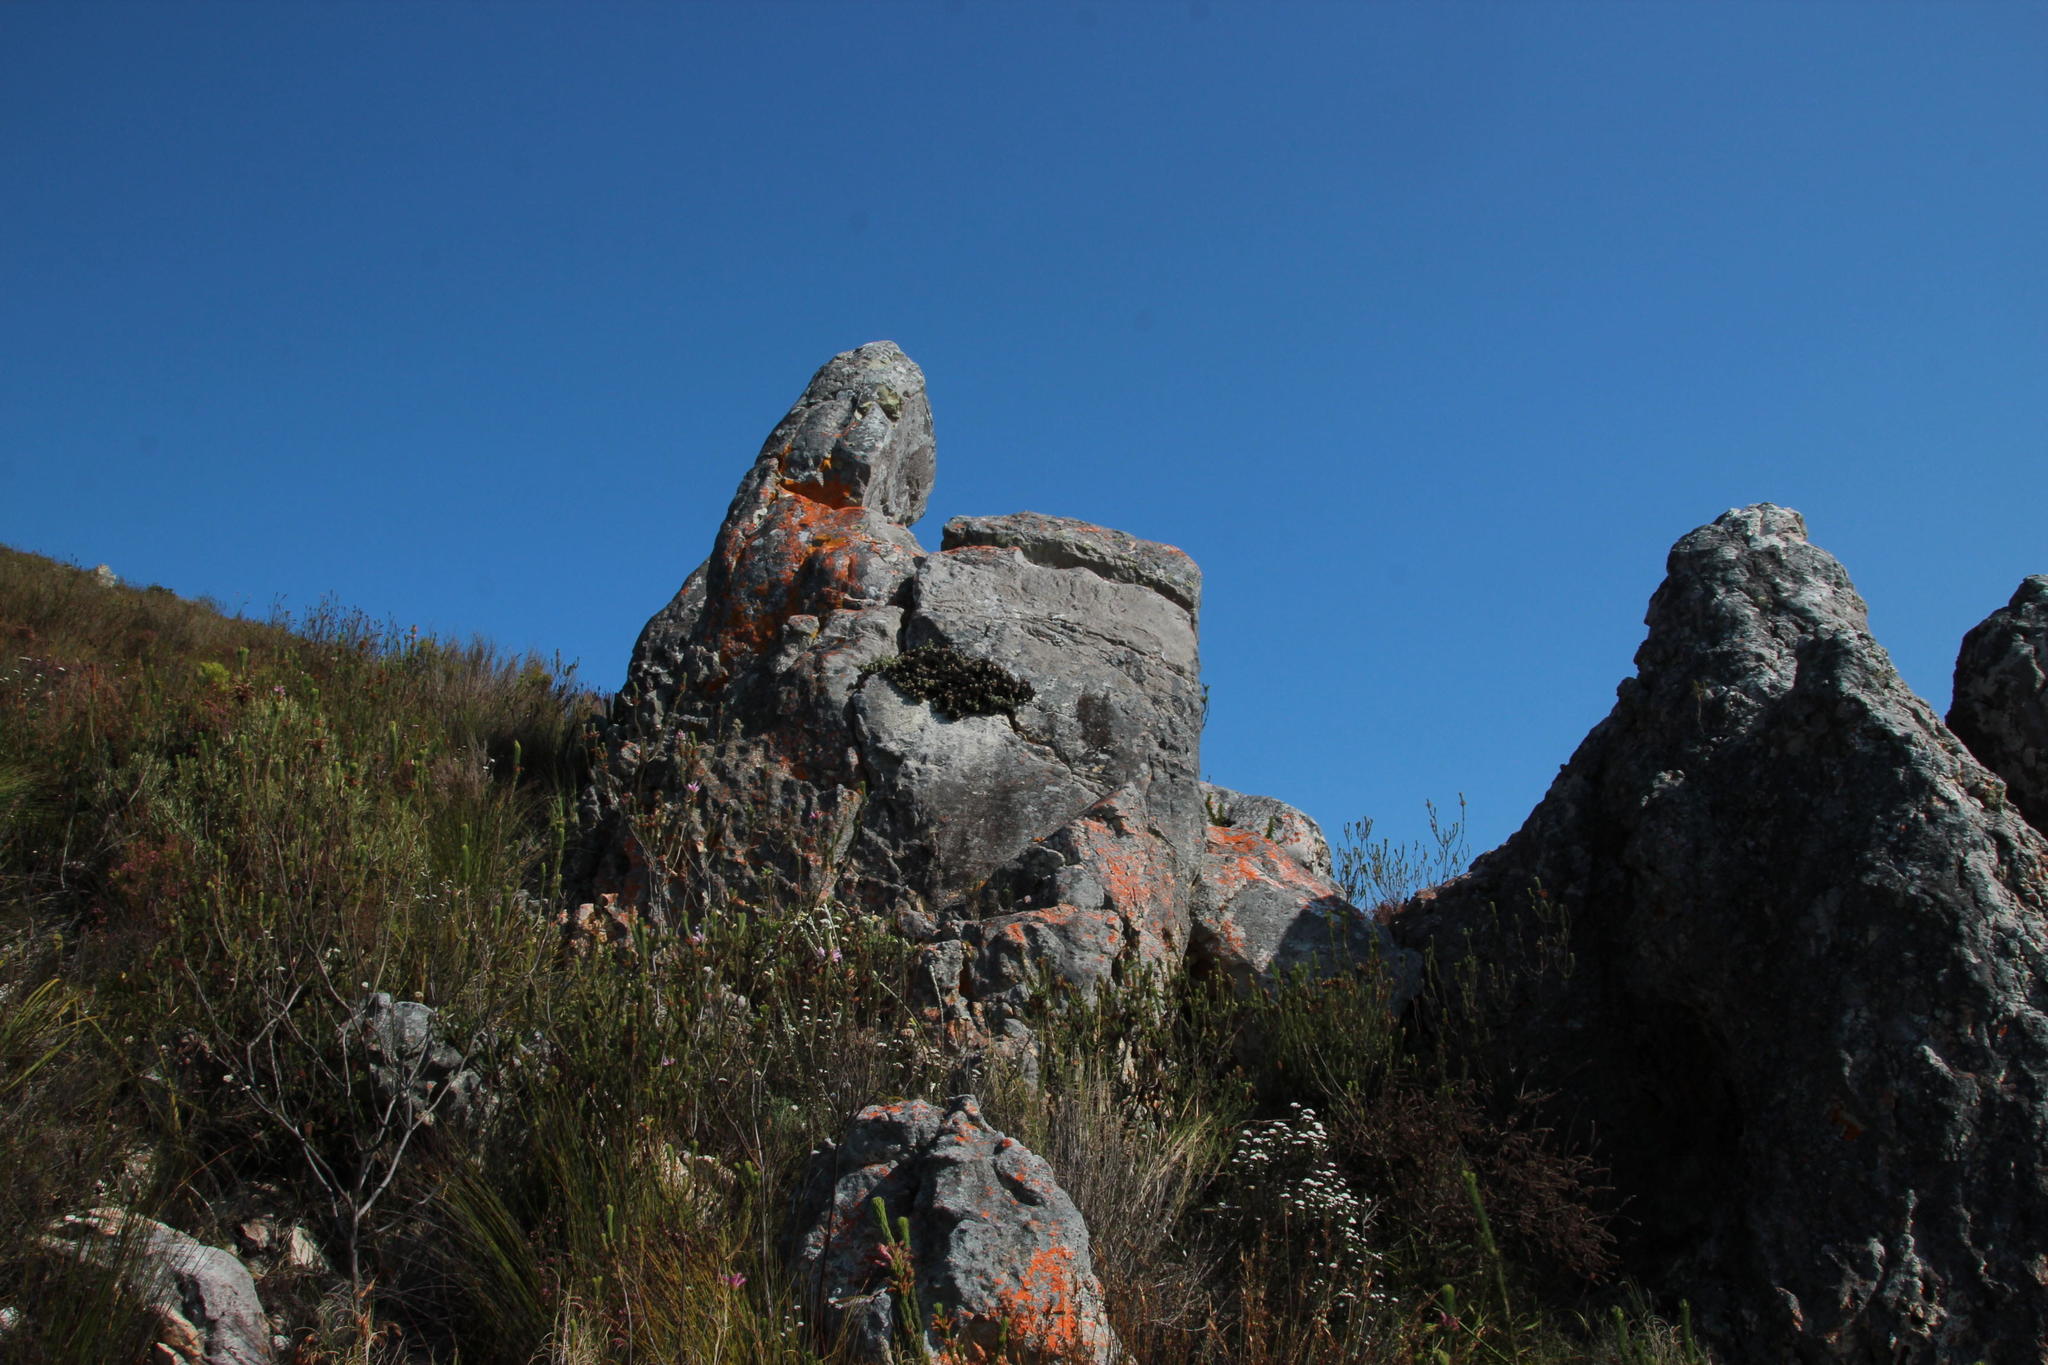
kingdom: Plantae
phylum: Tracheophyta
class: Magnoliopsida
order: Caryophyllales
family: Aizoaceae
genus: Oscularia
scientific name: Oscularia deltoides
